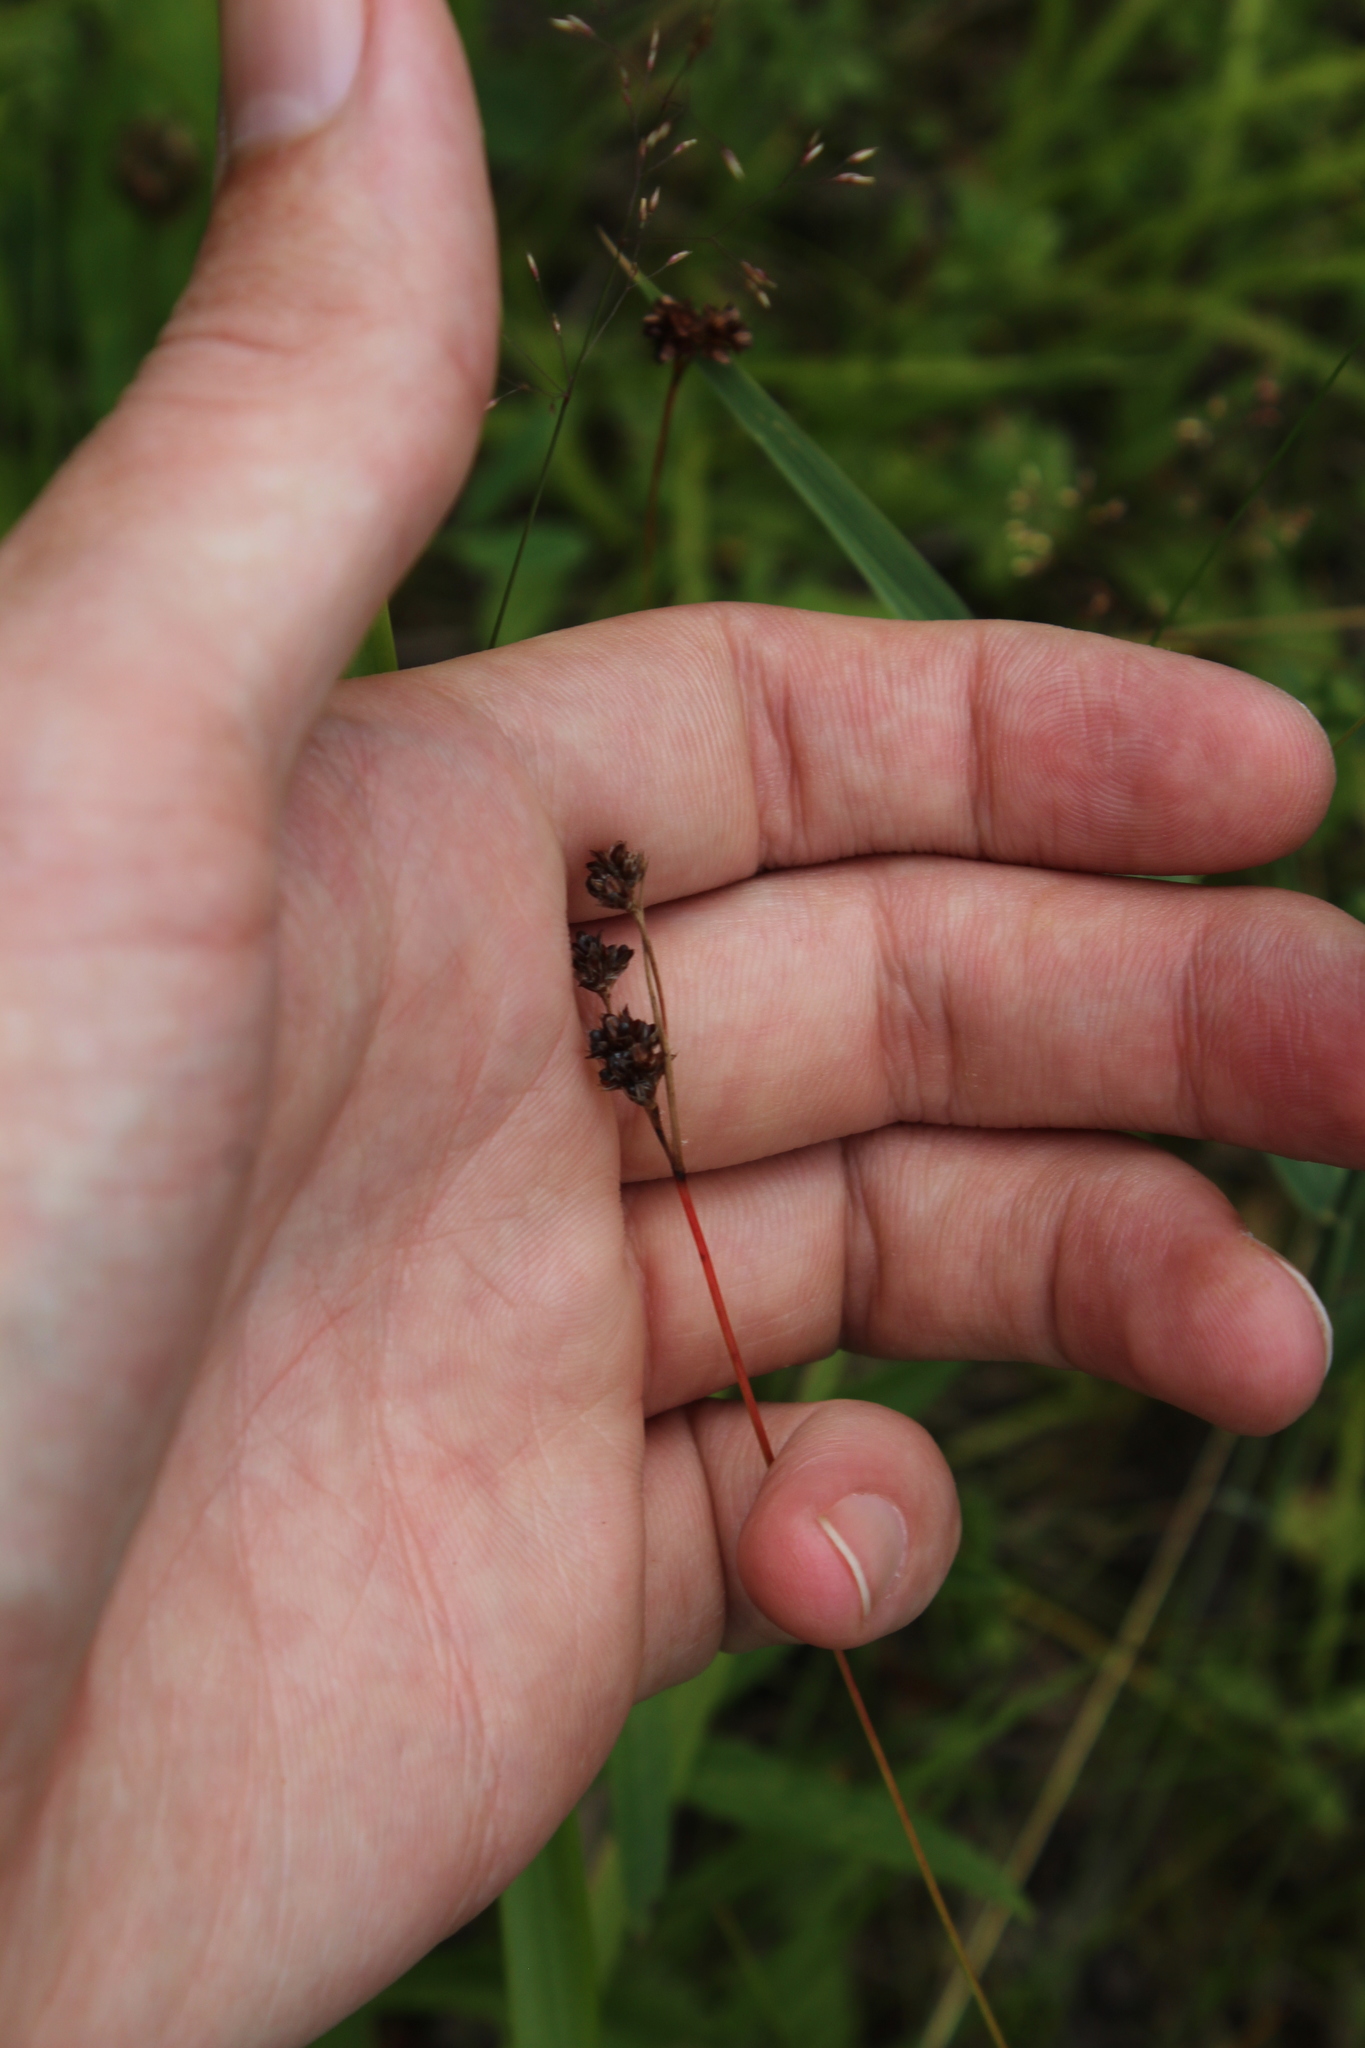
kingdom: Plantae
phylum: Tracheophyta
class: Liliopsida
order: Poales
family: Juncaceae
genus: Luzula
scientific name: Luzula multiflora
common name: Heath wood-rush
